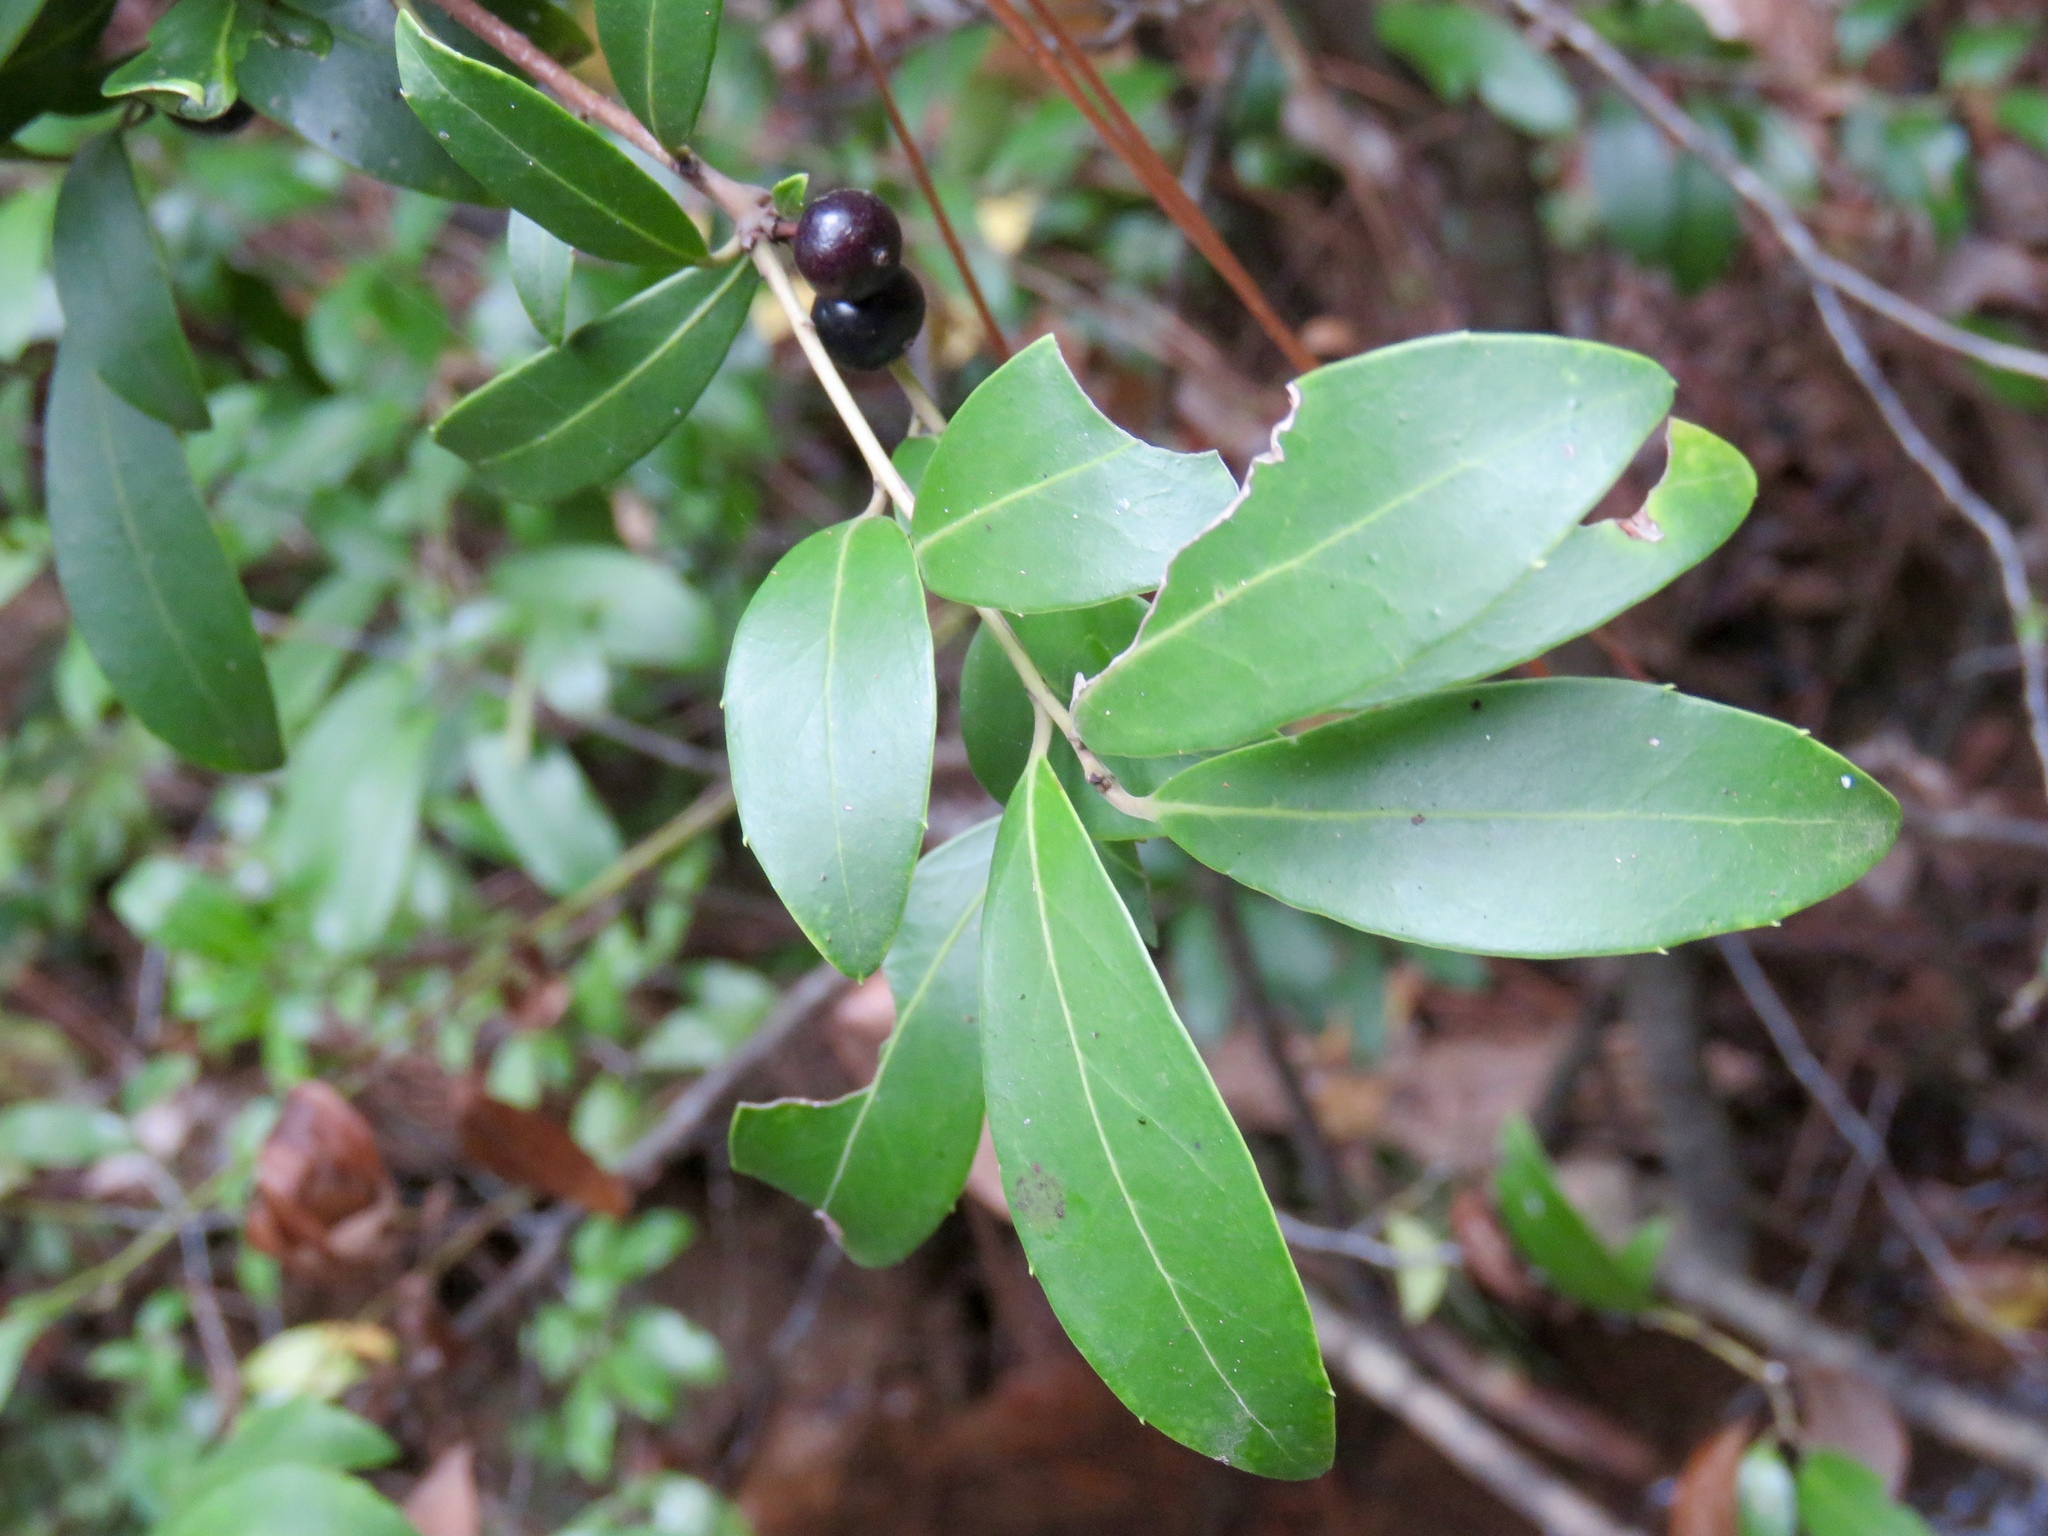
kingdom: Plantae
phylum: Tracheophyta
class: Magnoliopsida
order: Aquifoliales
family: Aquifoliaceae
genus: Ilex
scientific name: Ilex coriacea
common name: Sweet gallberry
